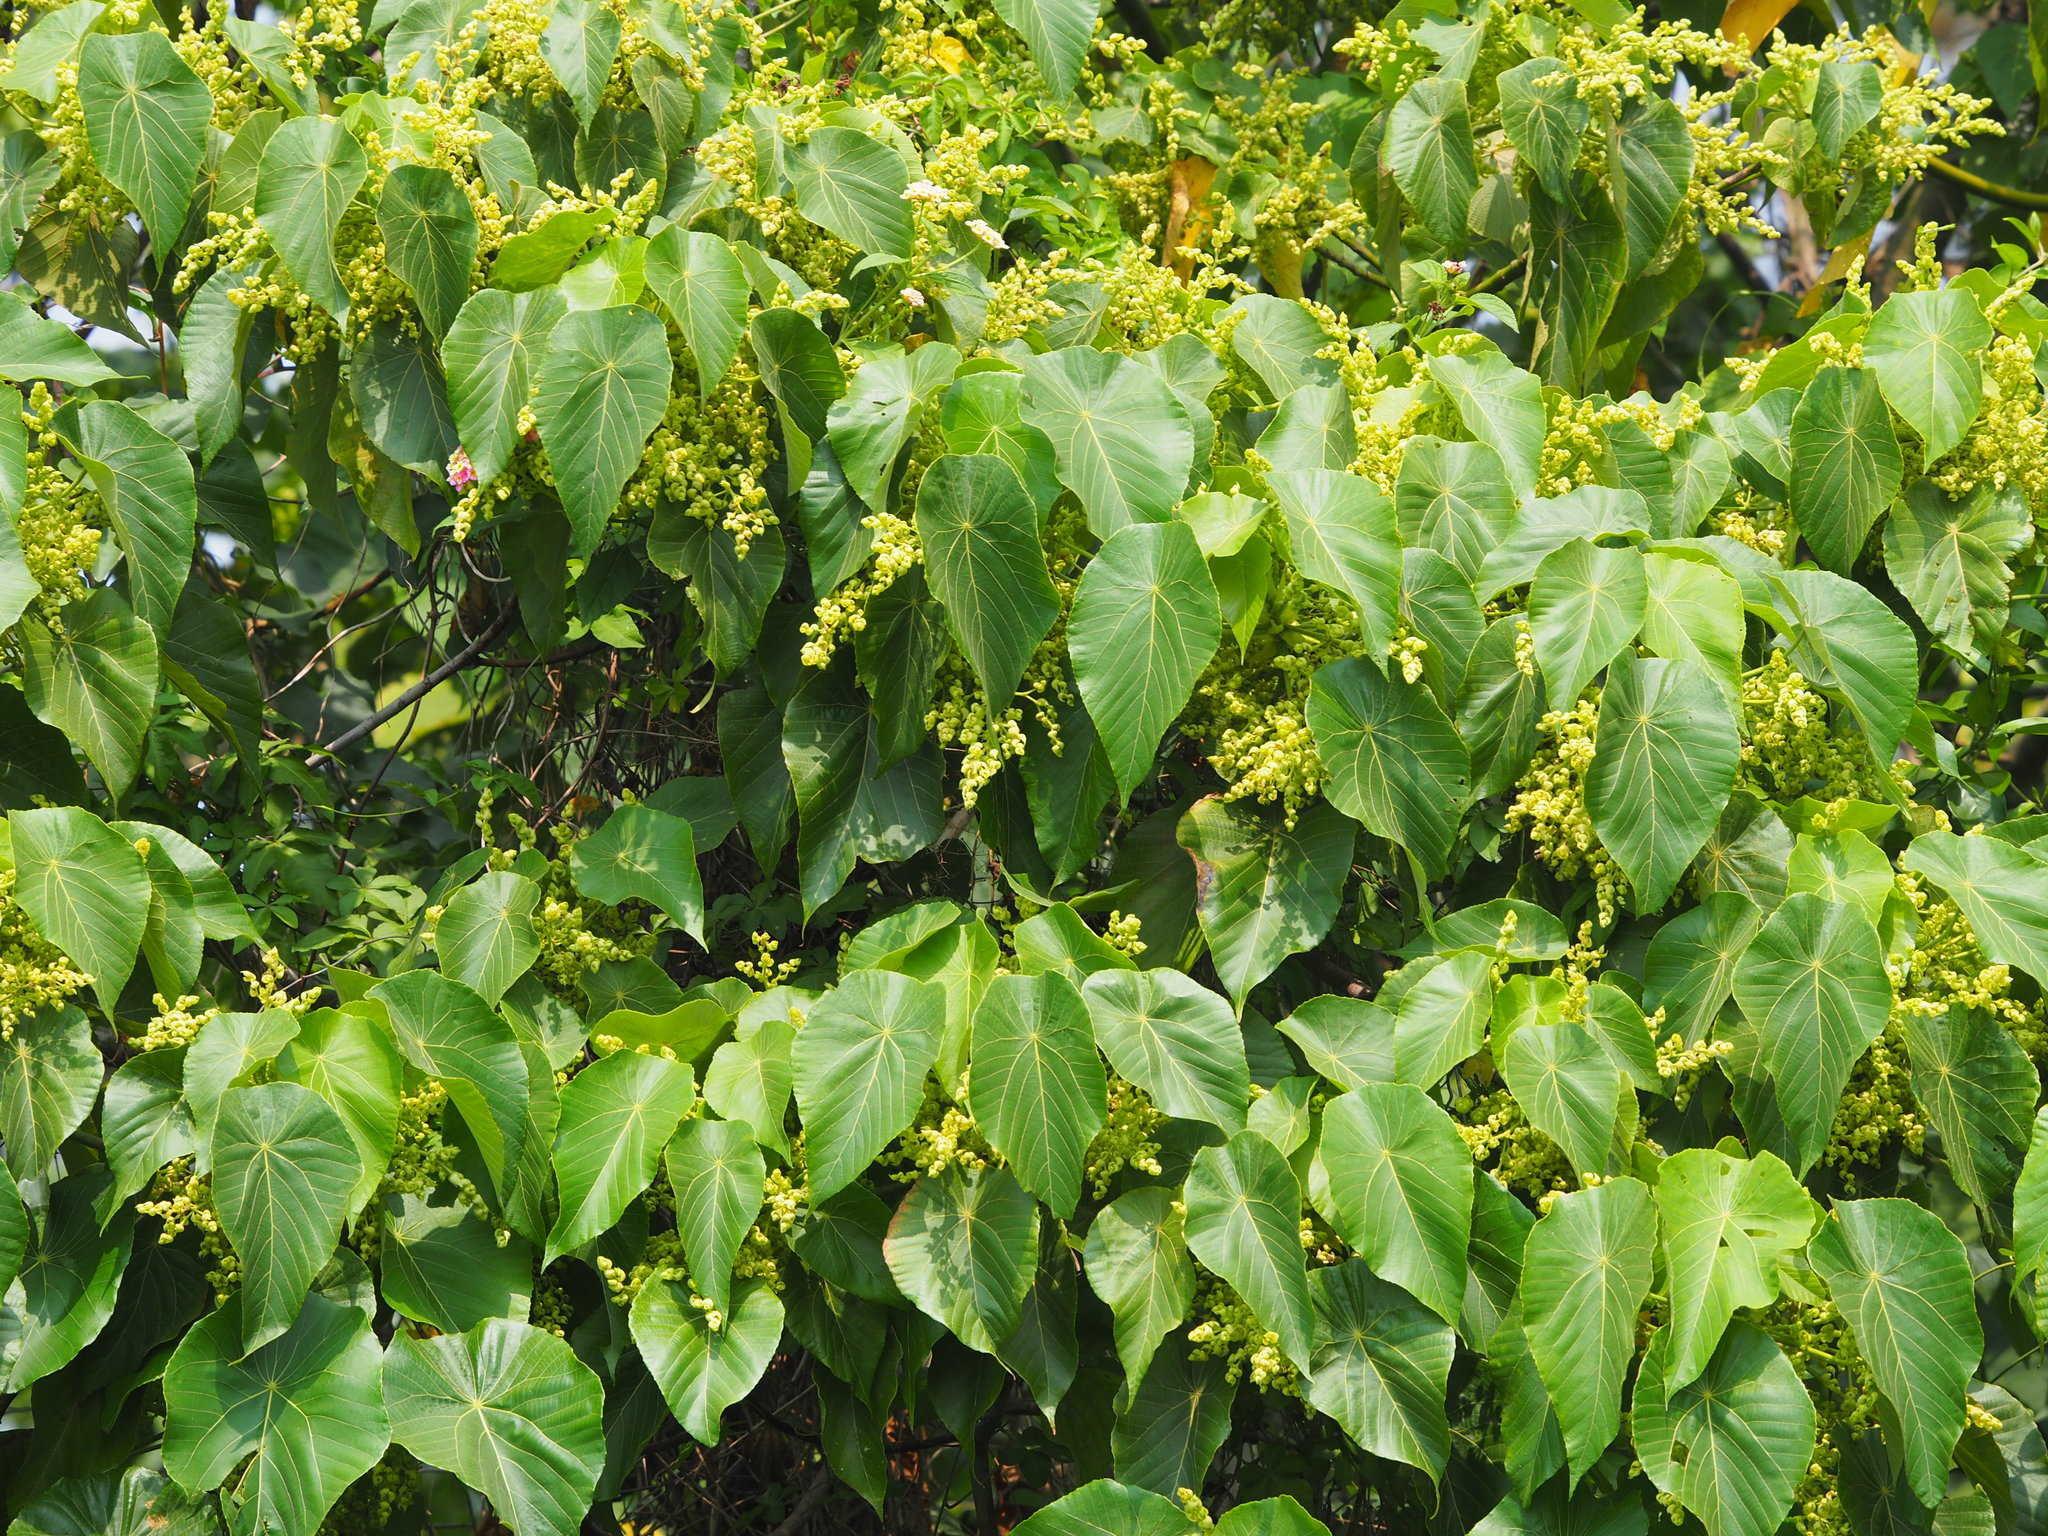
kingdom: Plantae
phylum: Tracheophyta
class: Magnoliopsida
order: Malpighiales
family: Euphorbiaceae
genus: Macaranga
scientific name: Macaranga tanarius
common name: Parasol leaf tree
